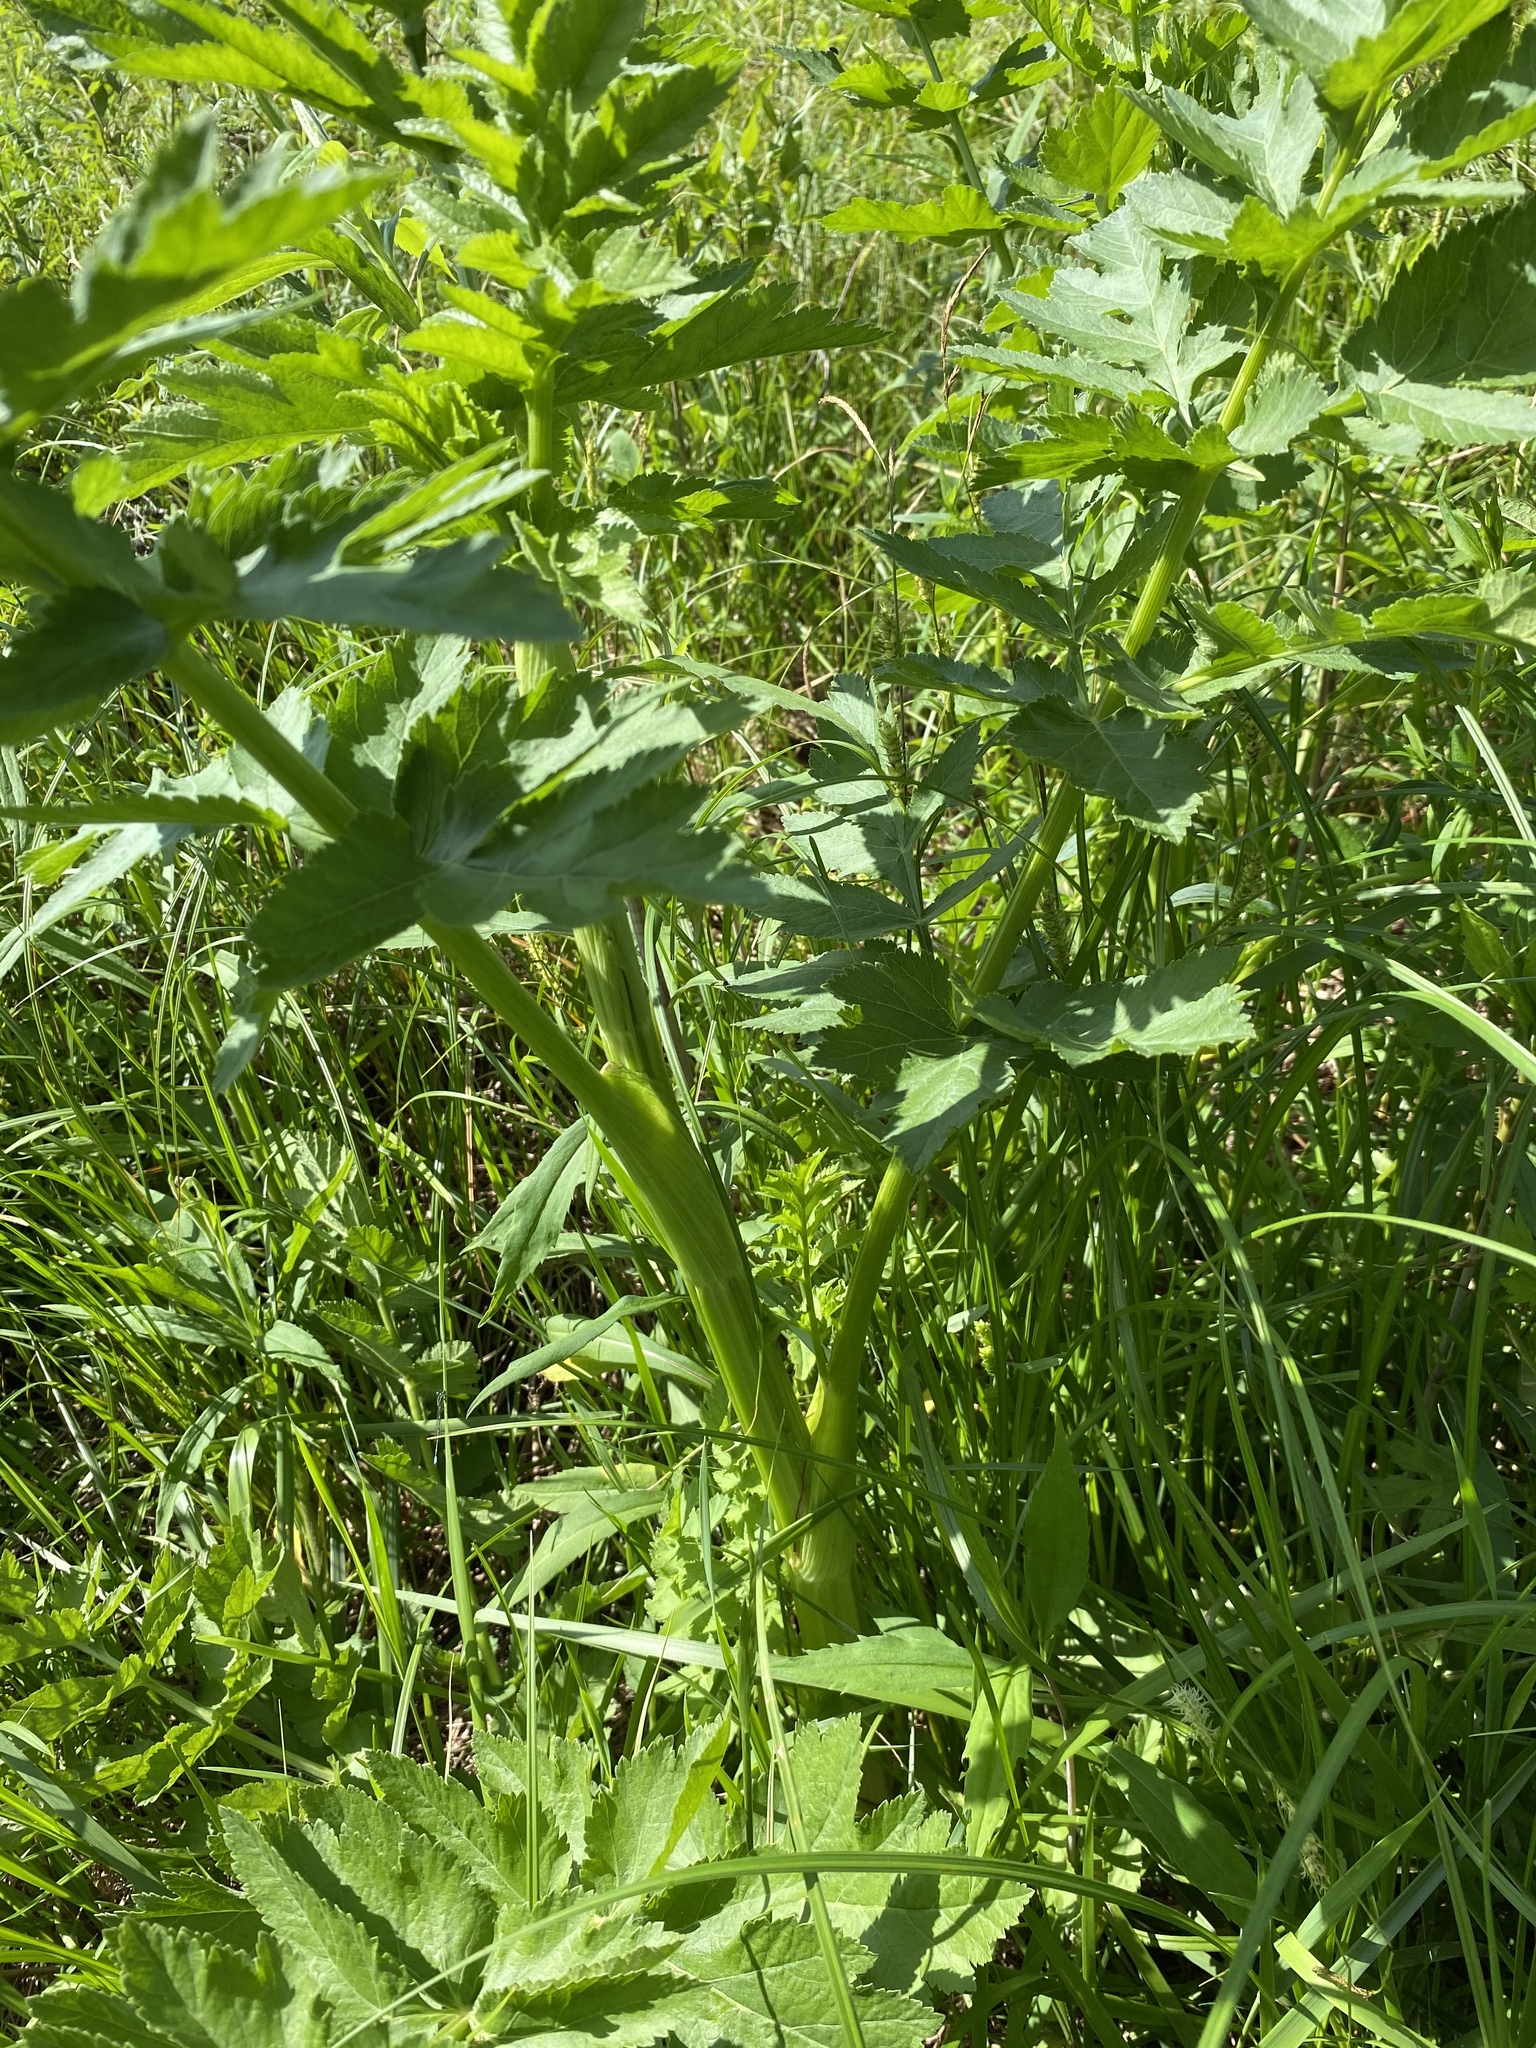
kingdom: Plantae
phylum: Tracheophyta
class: Magnoliopsida
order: Apiales
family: Apiaceae
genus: Pastinaca
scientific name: Pastinaca sativa
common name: Wild parsnip
